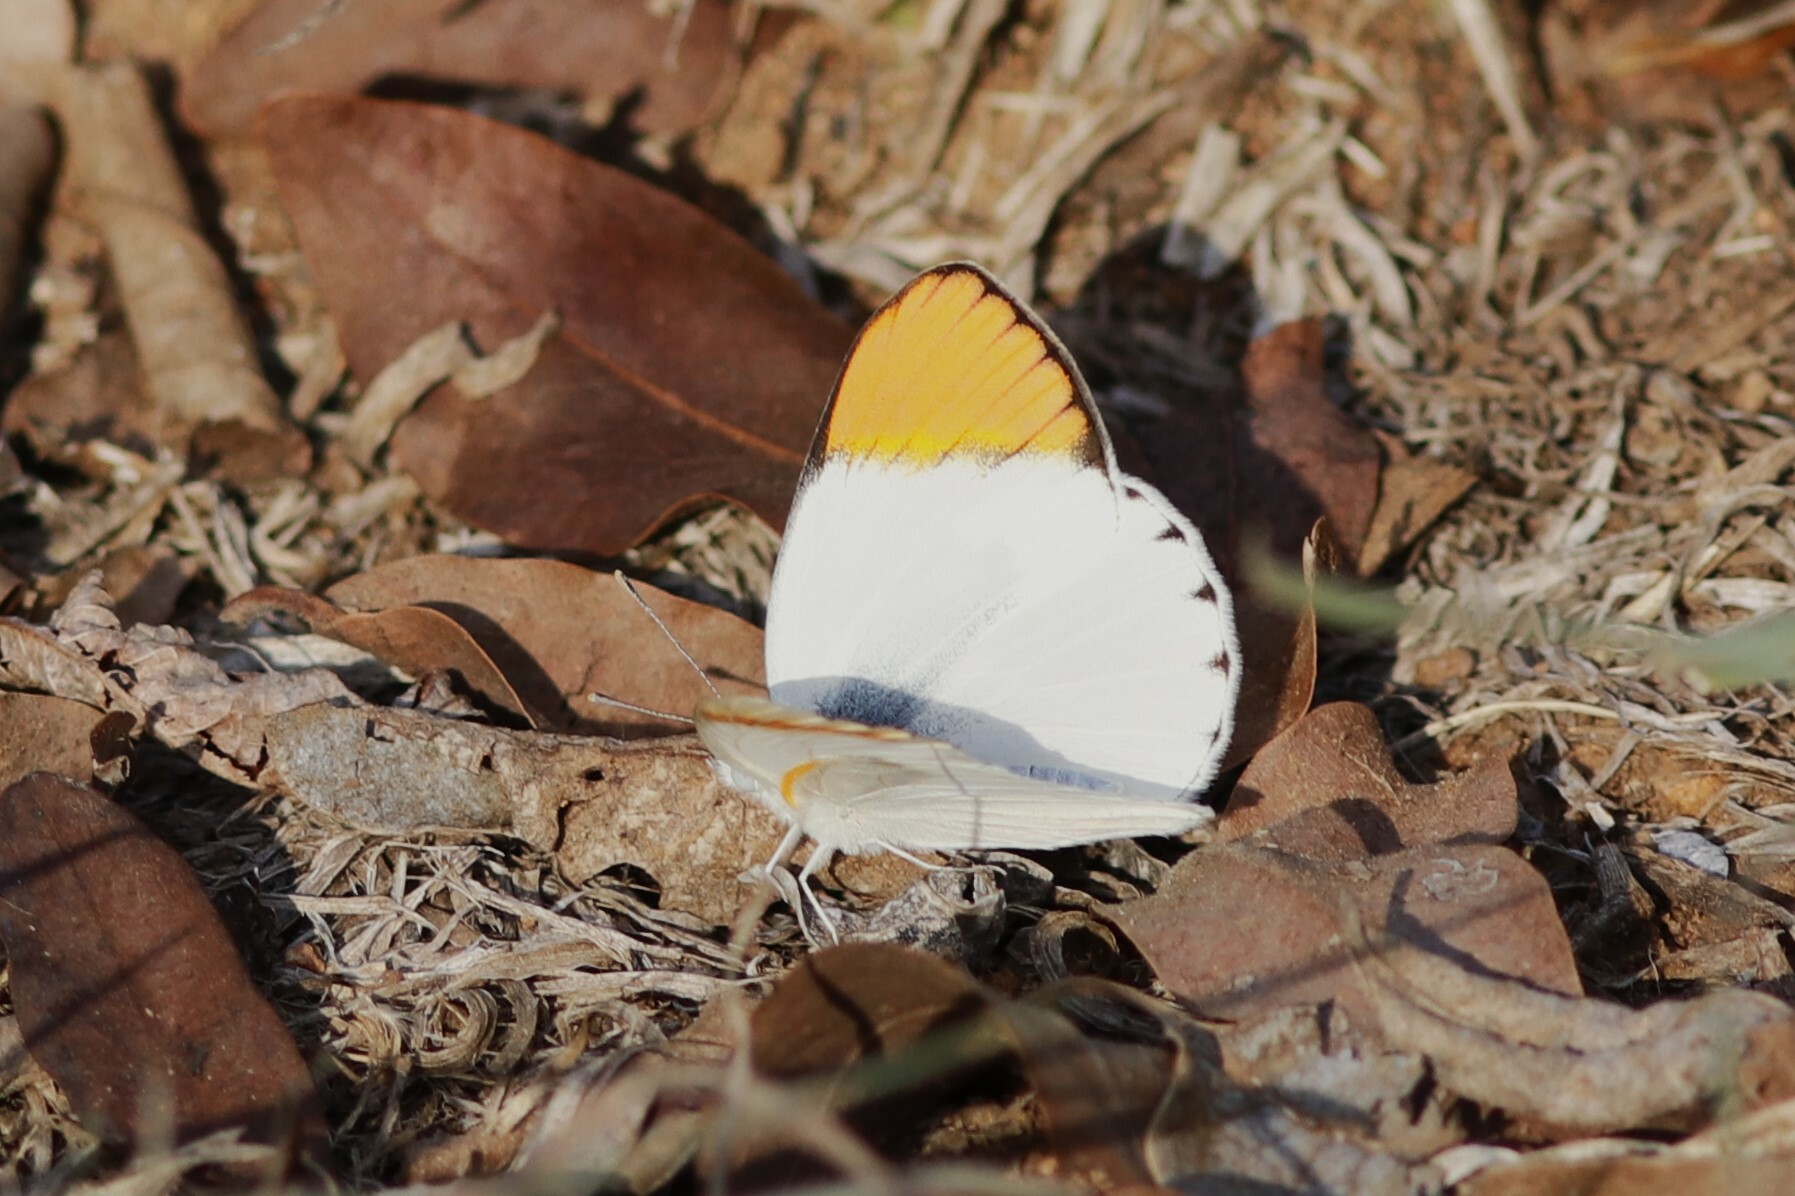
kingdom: Animalia
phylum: Arthropoda
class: Insecta
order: Lepidoptera
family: Pieridae
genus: Colotis
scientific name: Colotis evenina
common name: Common orange tip
